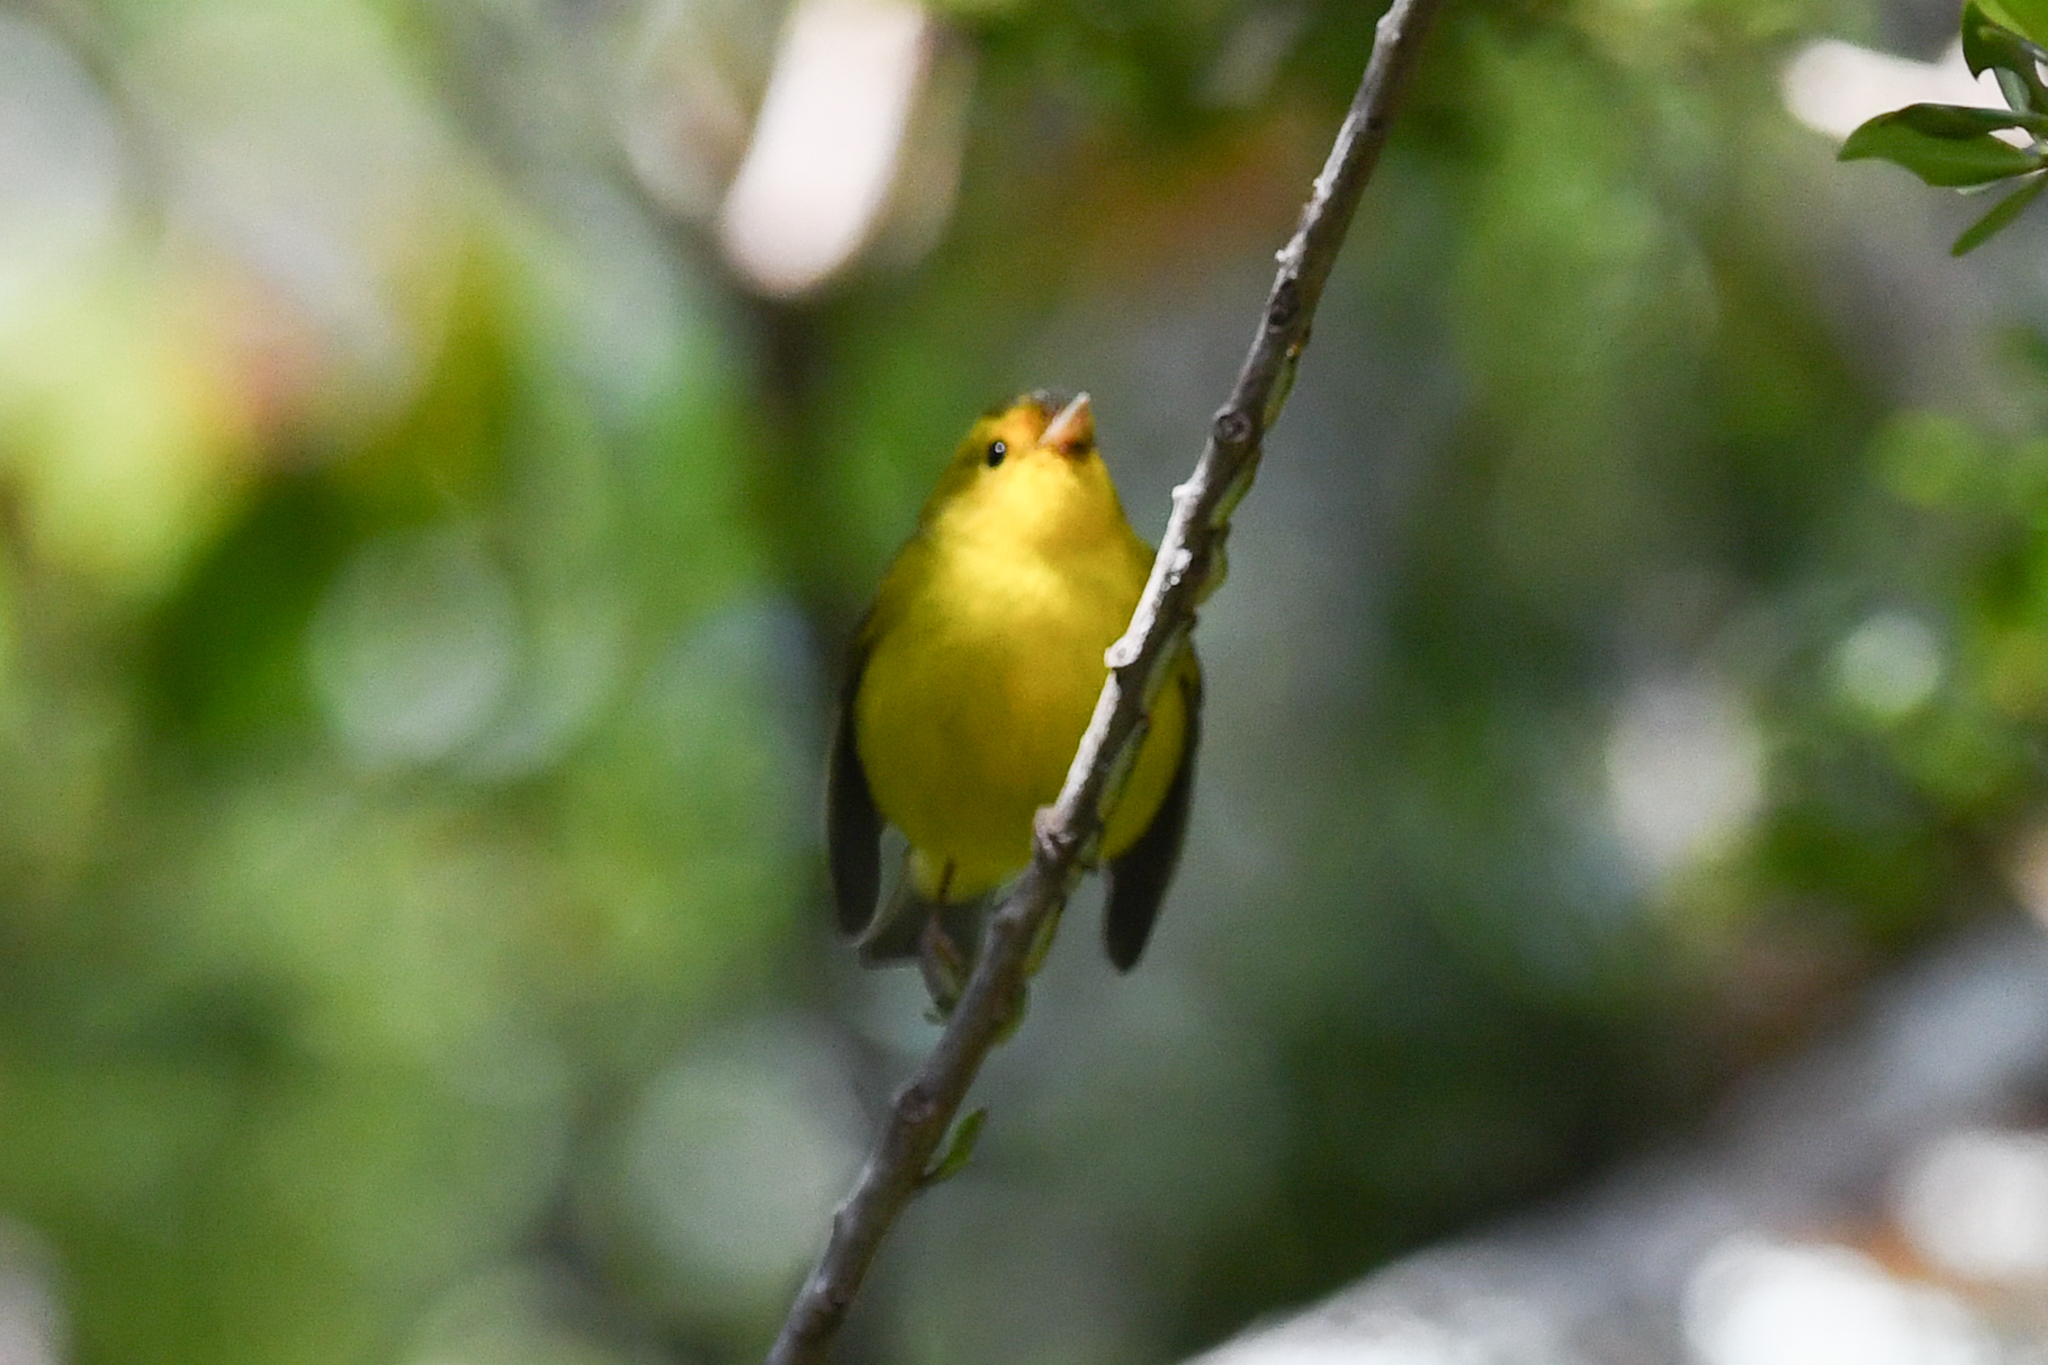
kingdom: Animalia
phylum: Chordata
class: Aves
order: Passeriformes
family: Parulidae
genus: Cardellina
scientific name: Cardellina pusilla
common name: Wilson's warbler
